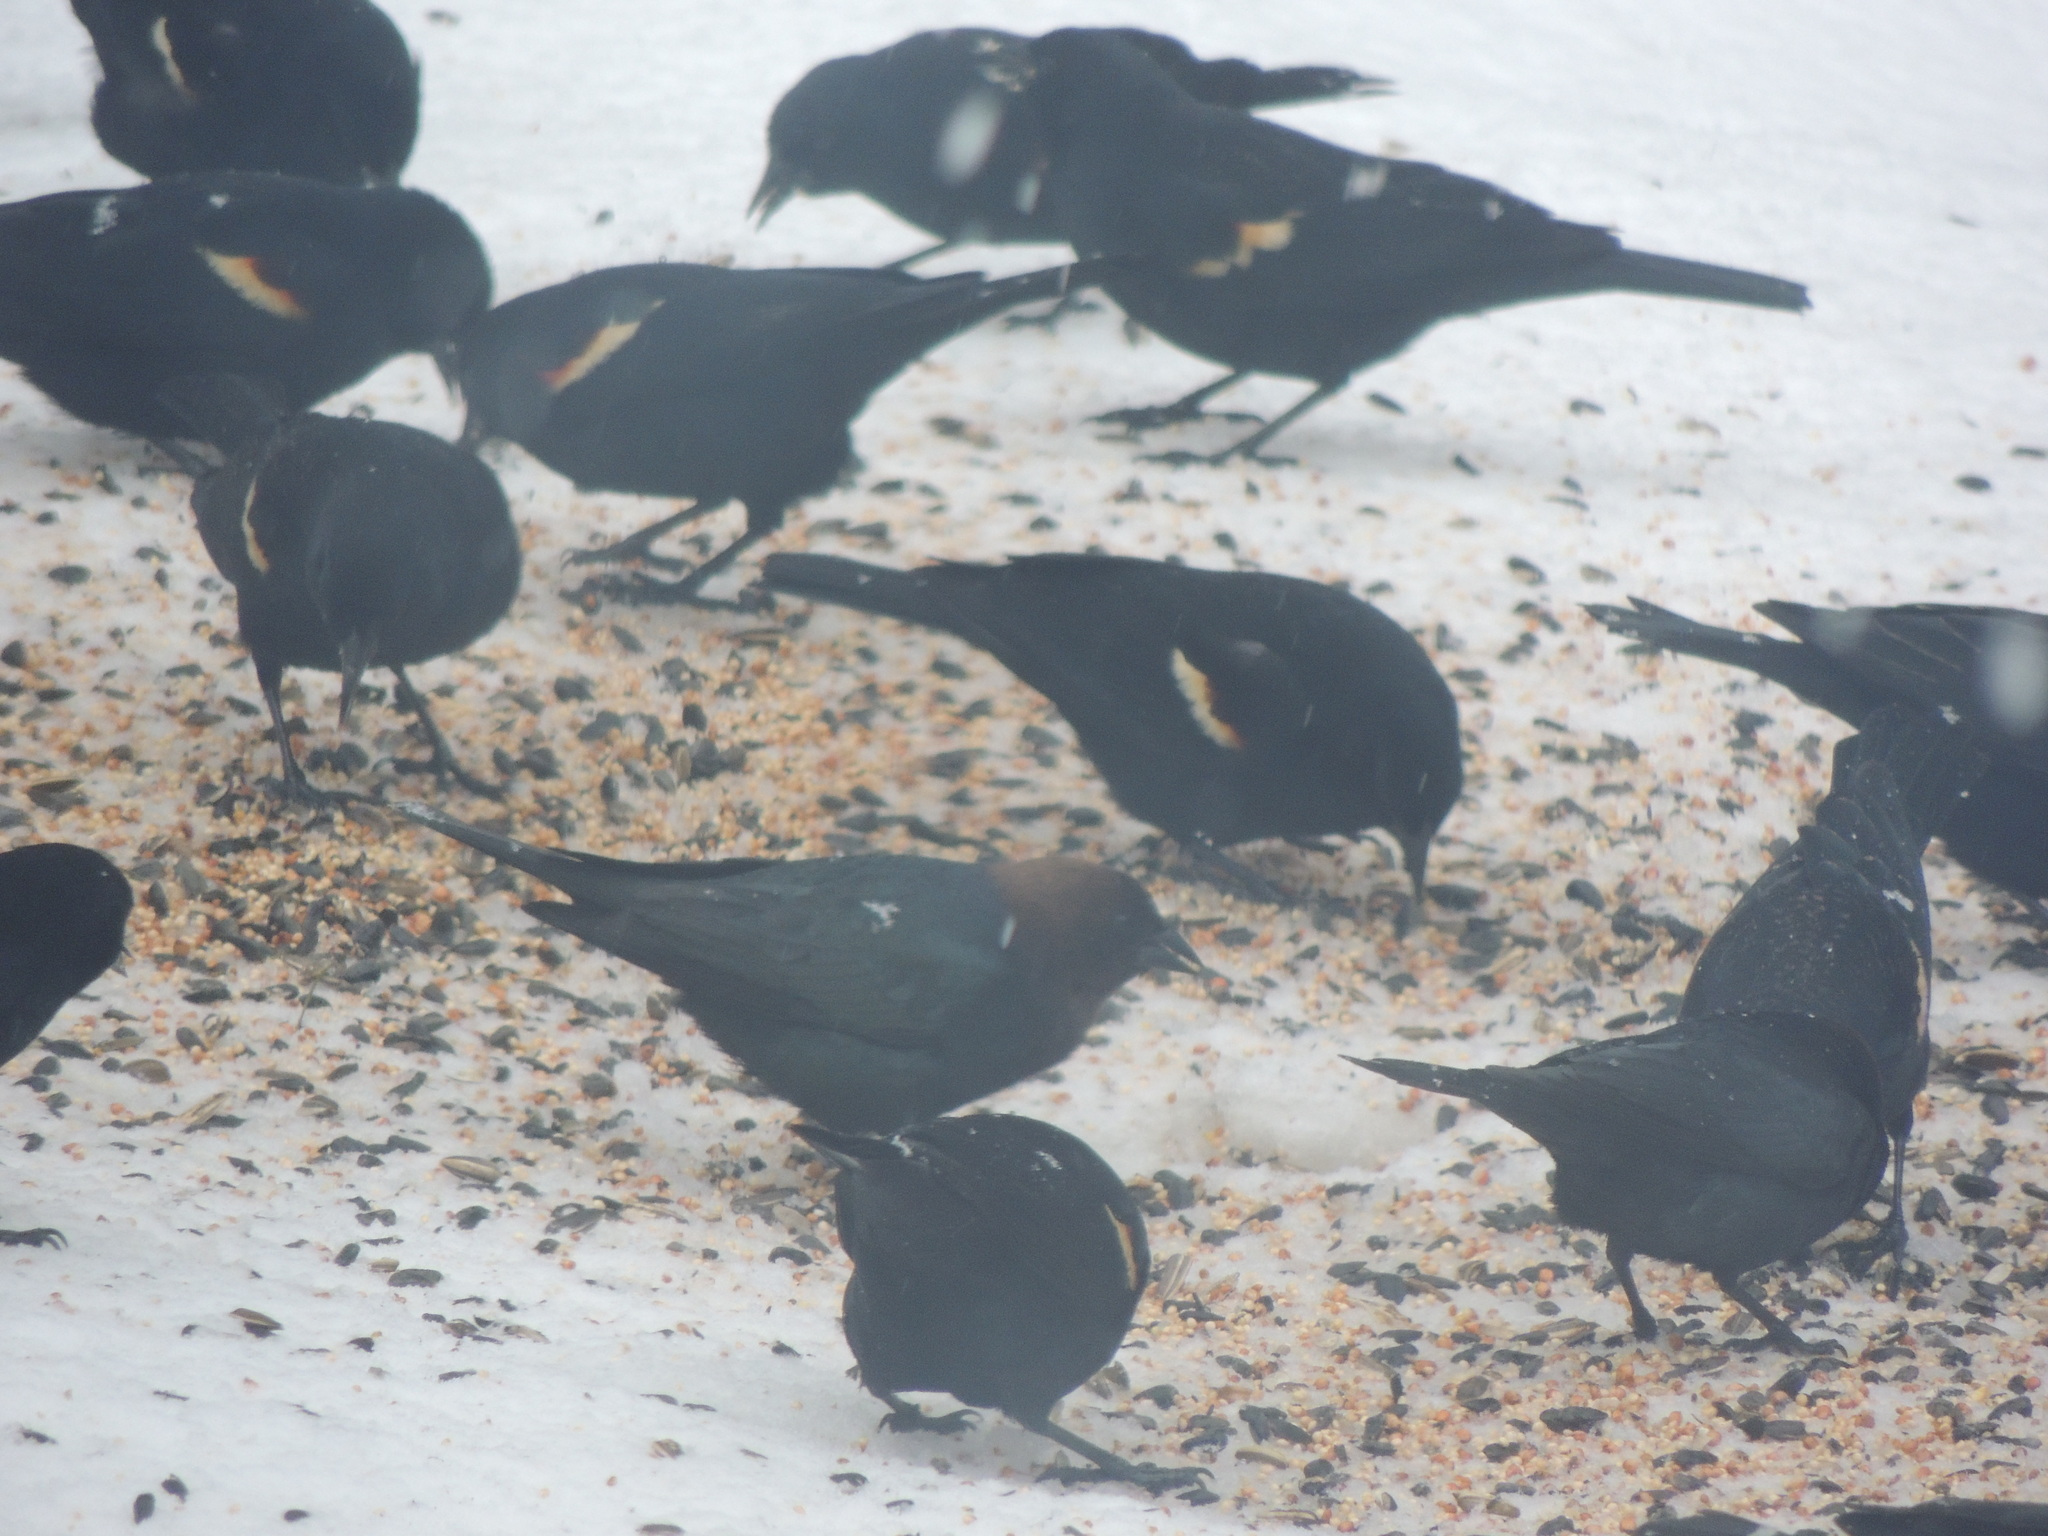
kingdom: Animalia
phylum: Chordata
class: Aves
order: Passeriformes
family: Icteridae
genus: Molothrus
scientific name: Molothrus ater
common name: Brown-headed cowbird
